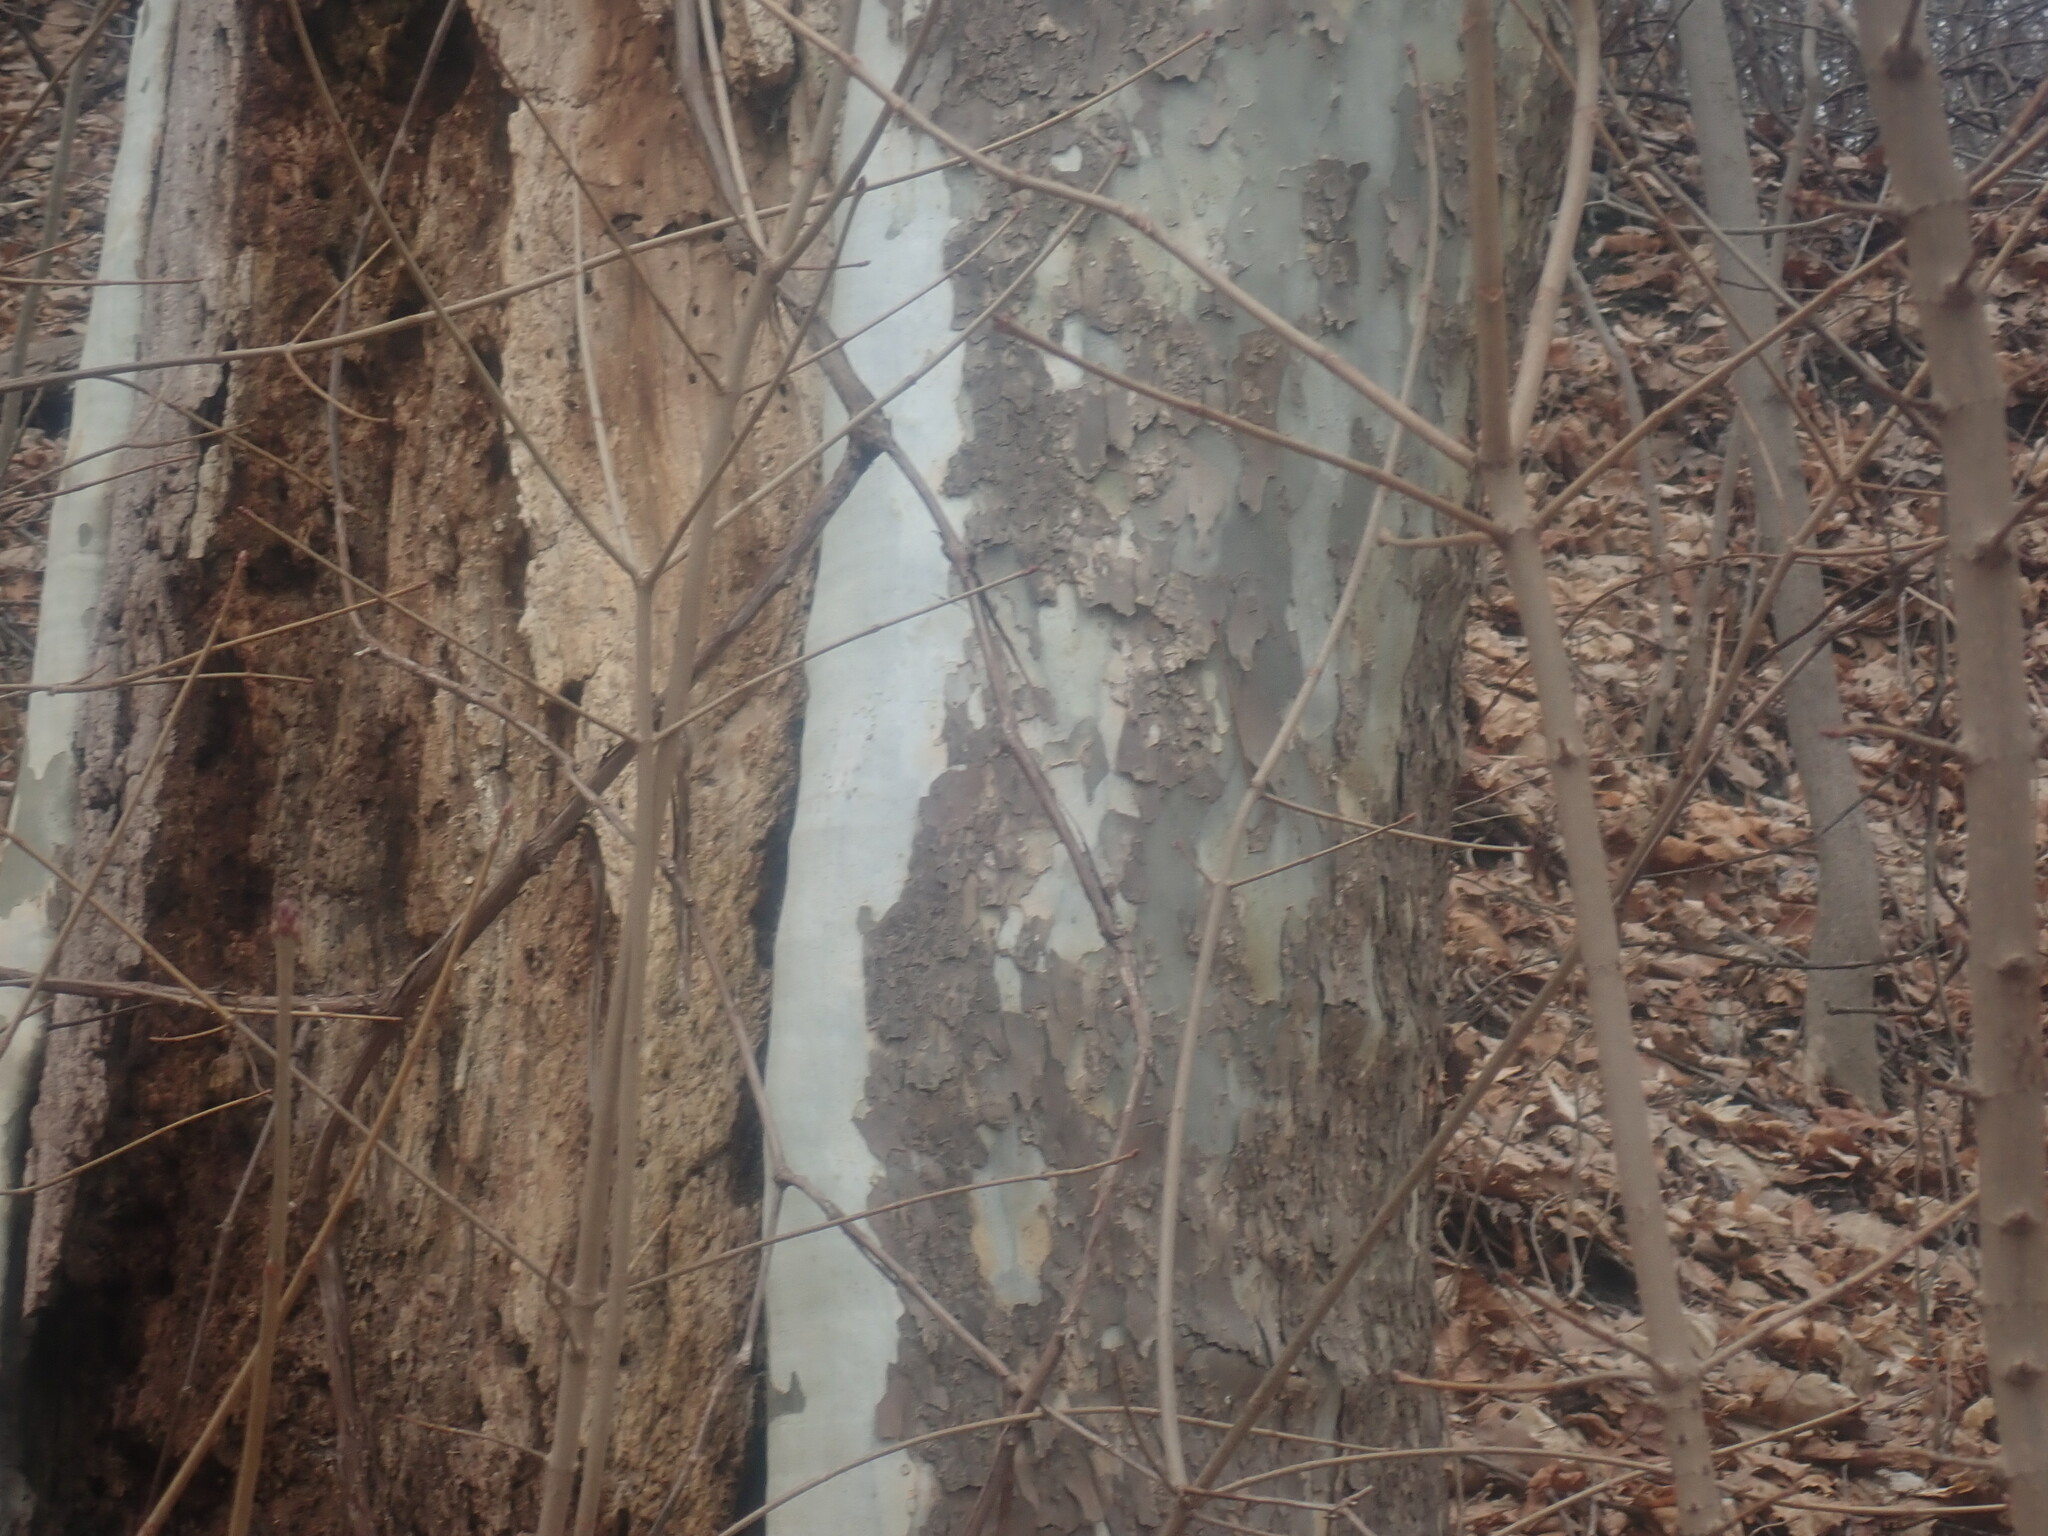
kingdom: Plantae
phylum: Tracheophyta
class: Magnoliopsida
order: Proteales
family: Platanaceae
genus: Platanus
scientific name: Platanus occidentalis
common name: American sycamore
